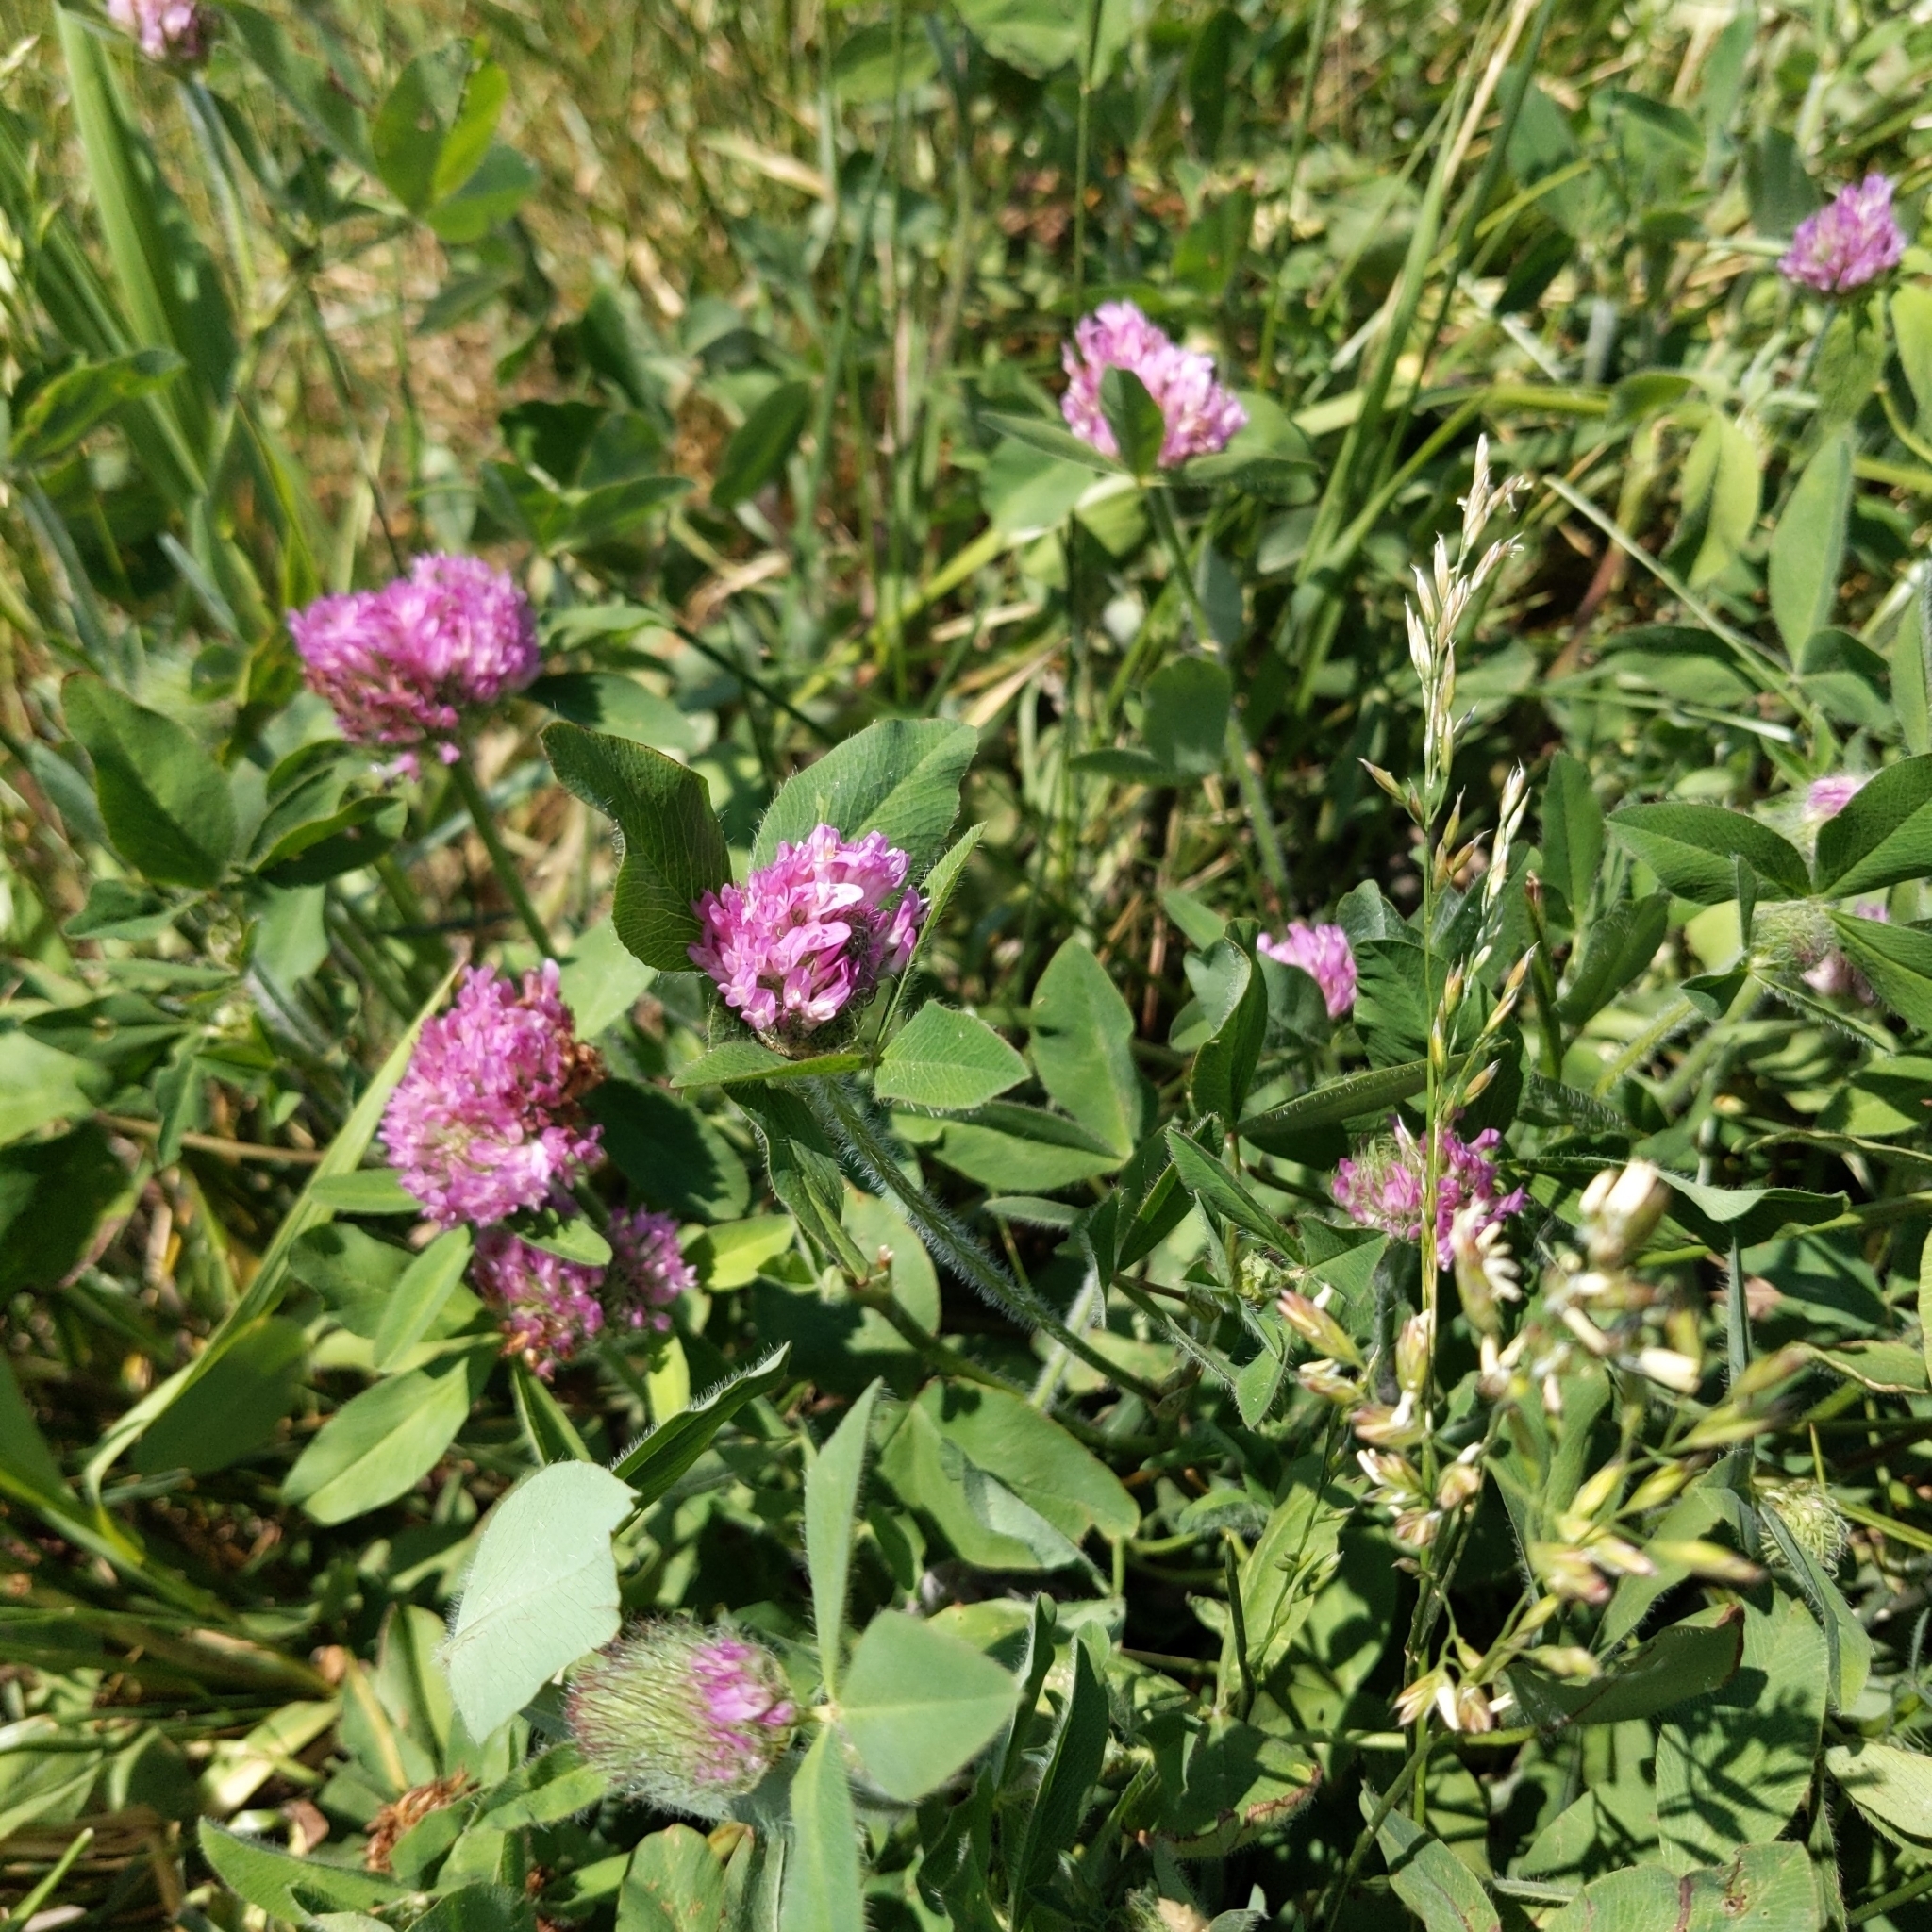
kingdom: Plantae
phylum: Tracheophyta
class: Magnoliopsida
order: Fabales
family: Fabaceae
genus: Trifolium
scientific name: Trifolium pratense
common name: Red clover
